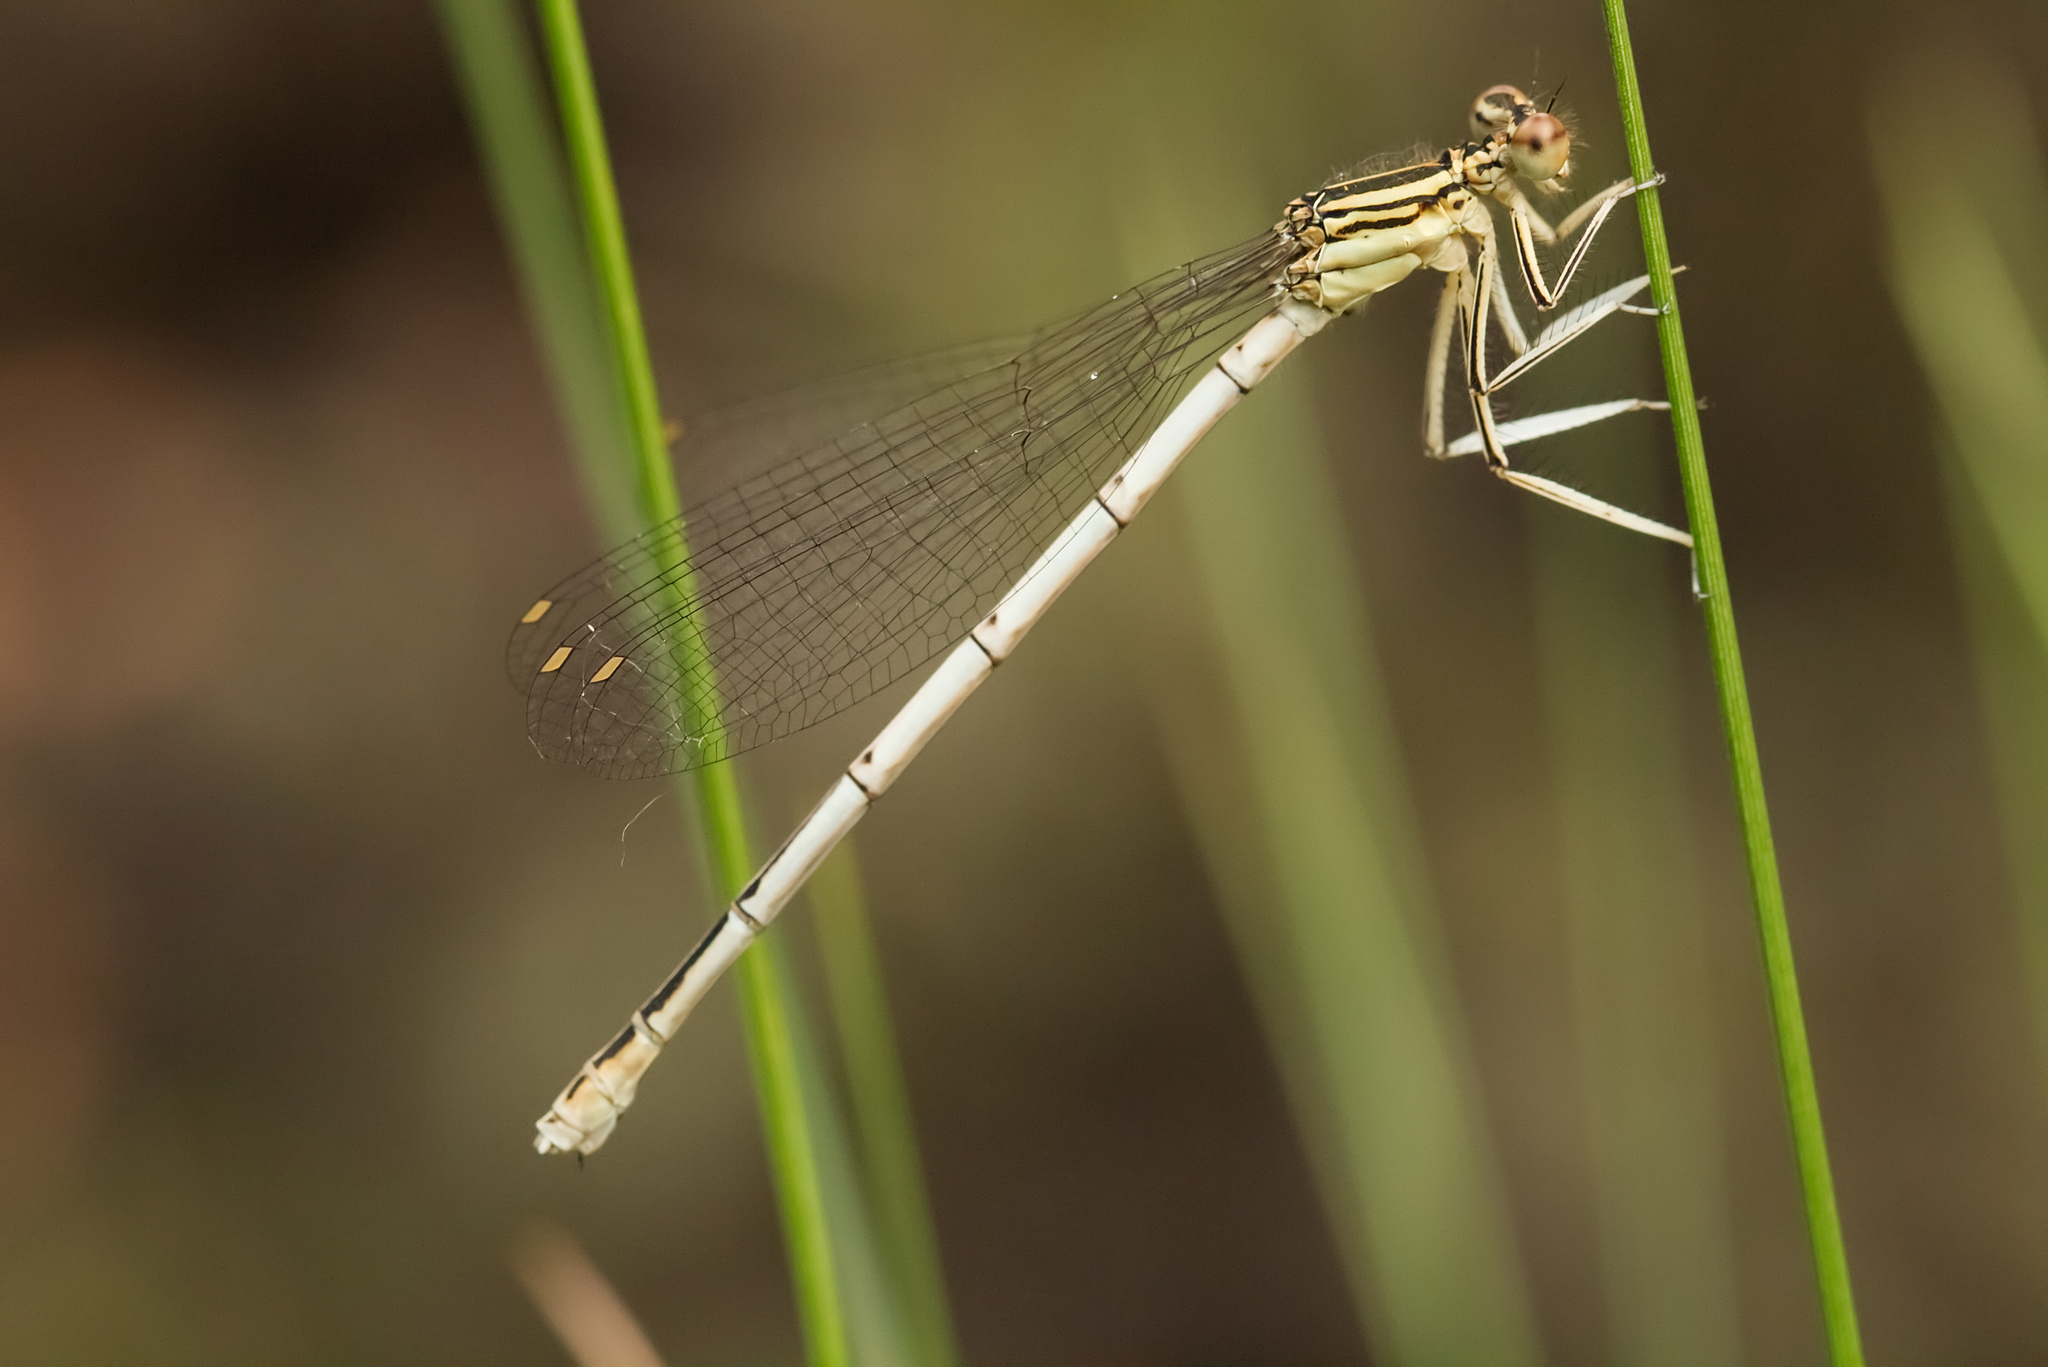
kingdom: Animalia
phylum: Arthropoda
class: Insecta
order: Odonata
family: Platycnemididae
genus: Platycnemis
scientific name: Platycnemis pennipes
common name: White-legged damselfly
